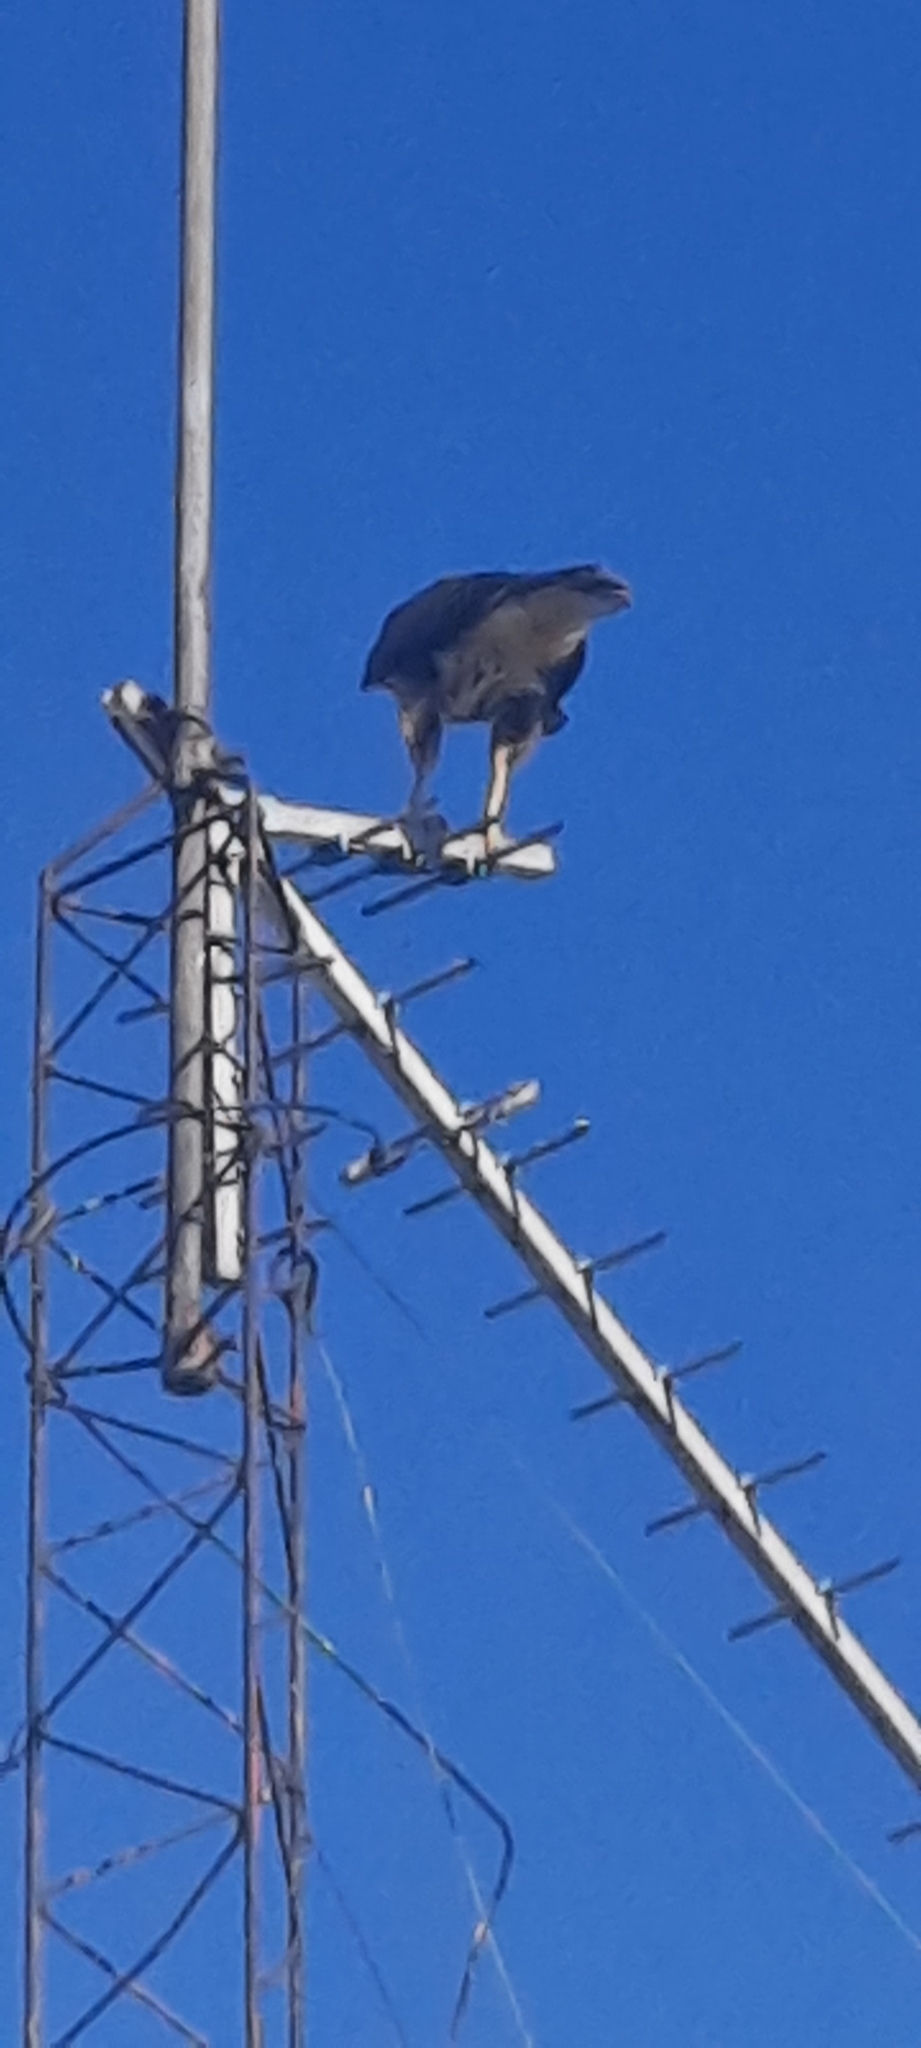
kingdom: Animalia
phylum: Chordata
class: Aves
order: Accipitriformes
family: Accipitridae
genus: Parabuteo
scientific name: Parabuteo unicinctus
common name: Harris's hawk
